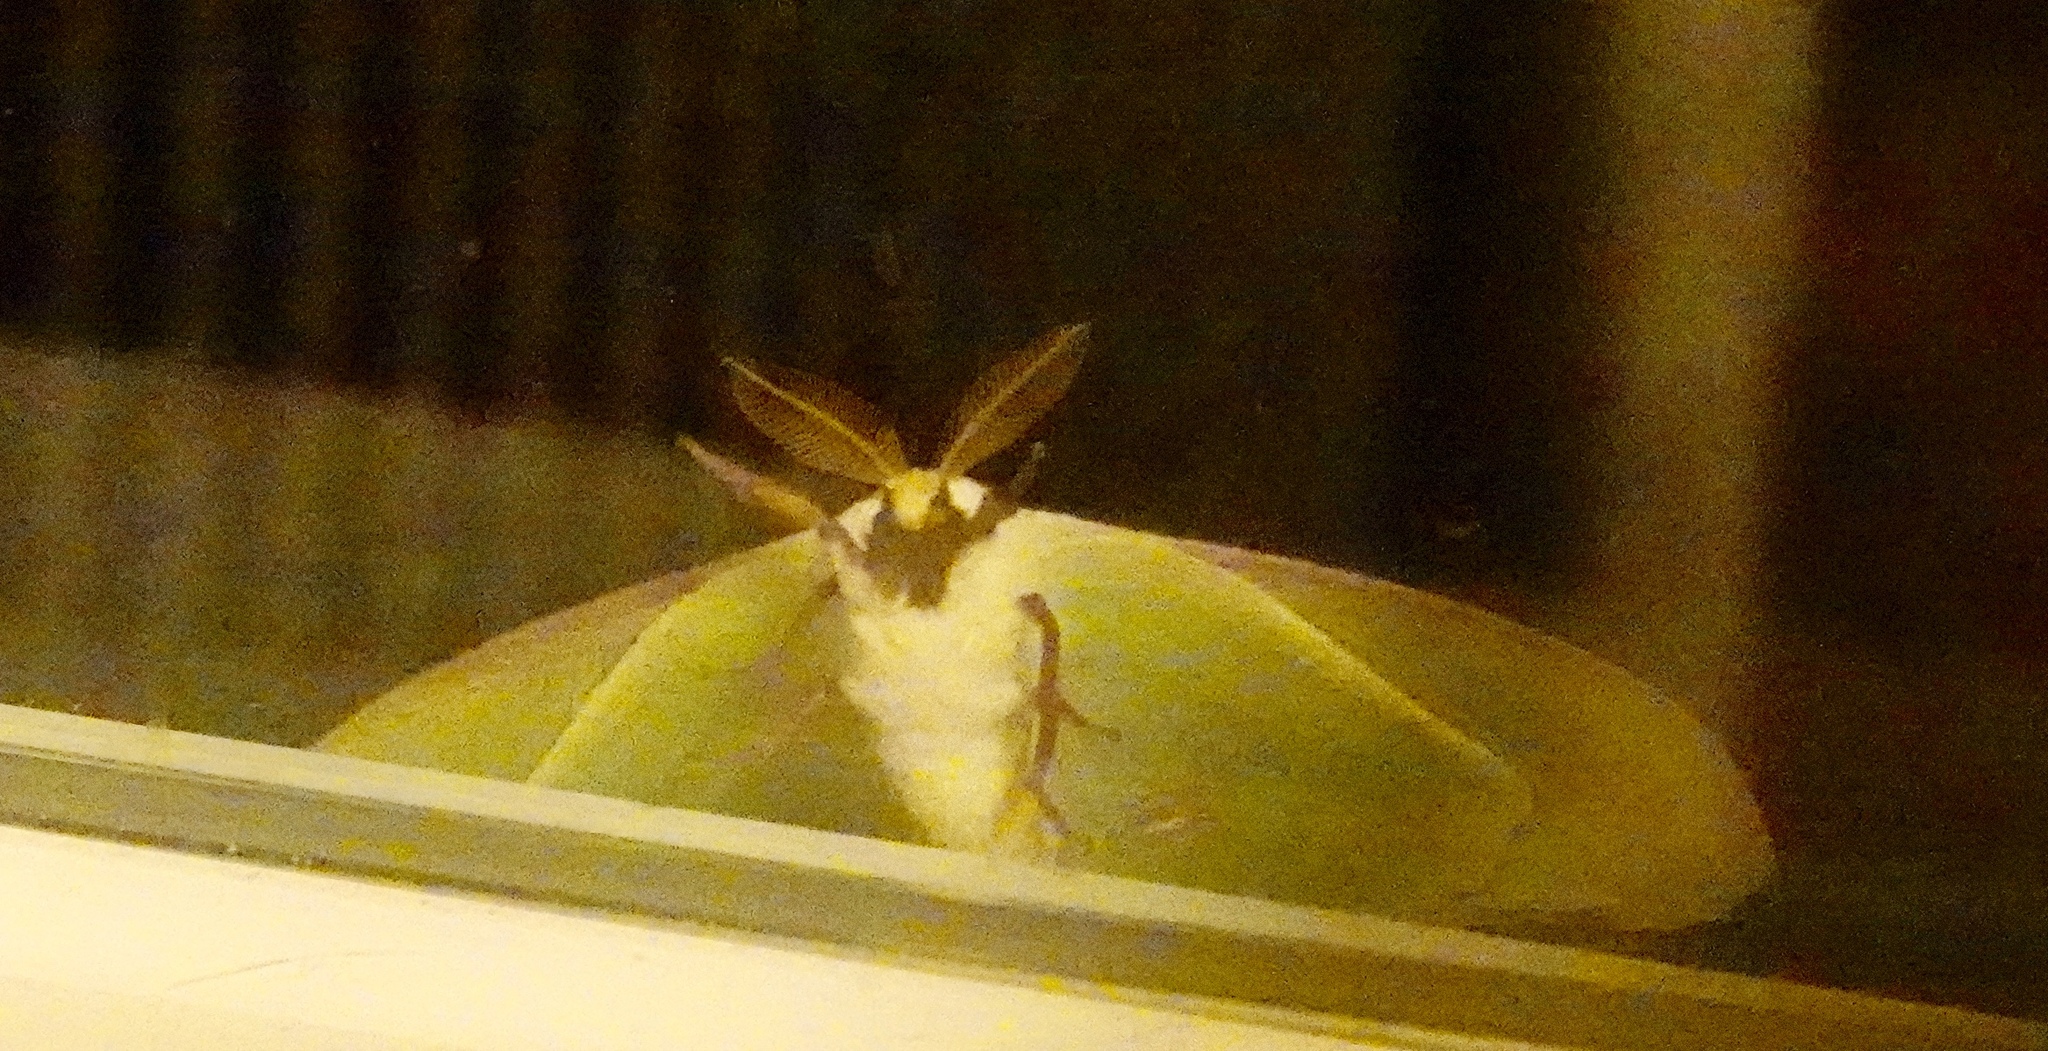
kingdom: Animalia
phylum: Arthropoda
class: Insecta
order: Lepidoptera
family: Saturniidae
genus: Actias
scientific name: Actias luna
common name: Luna moth
